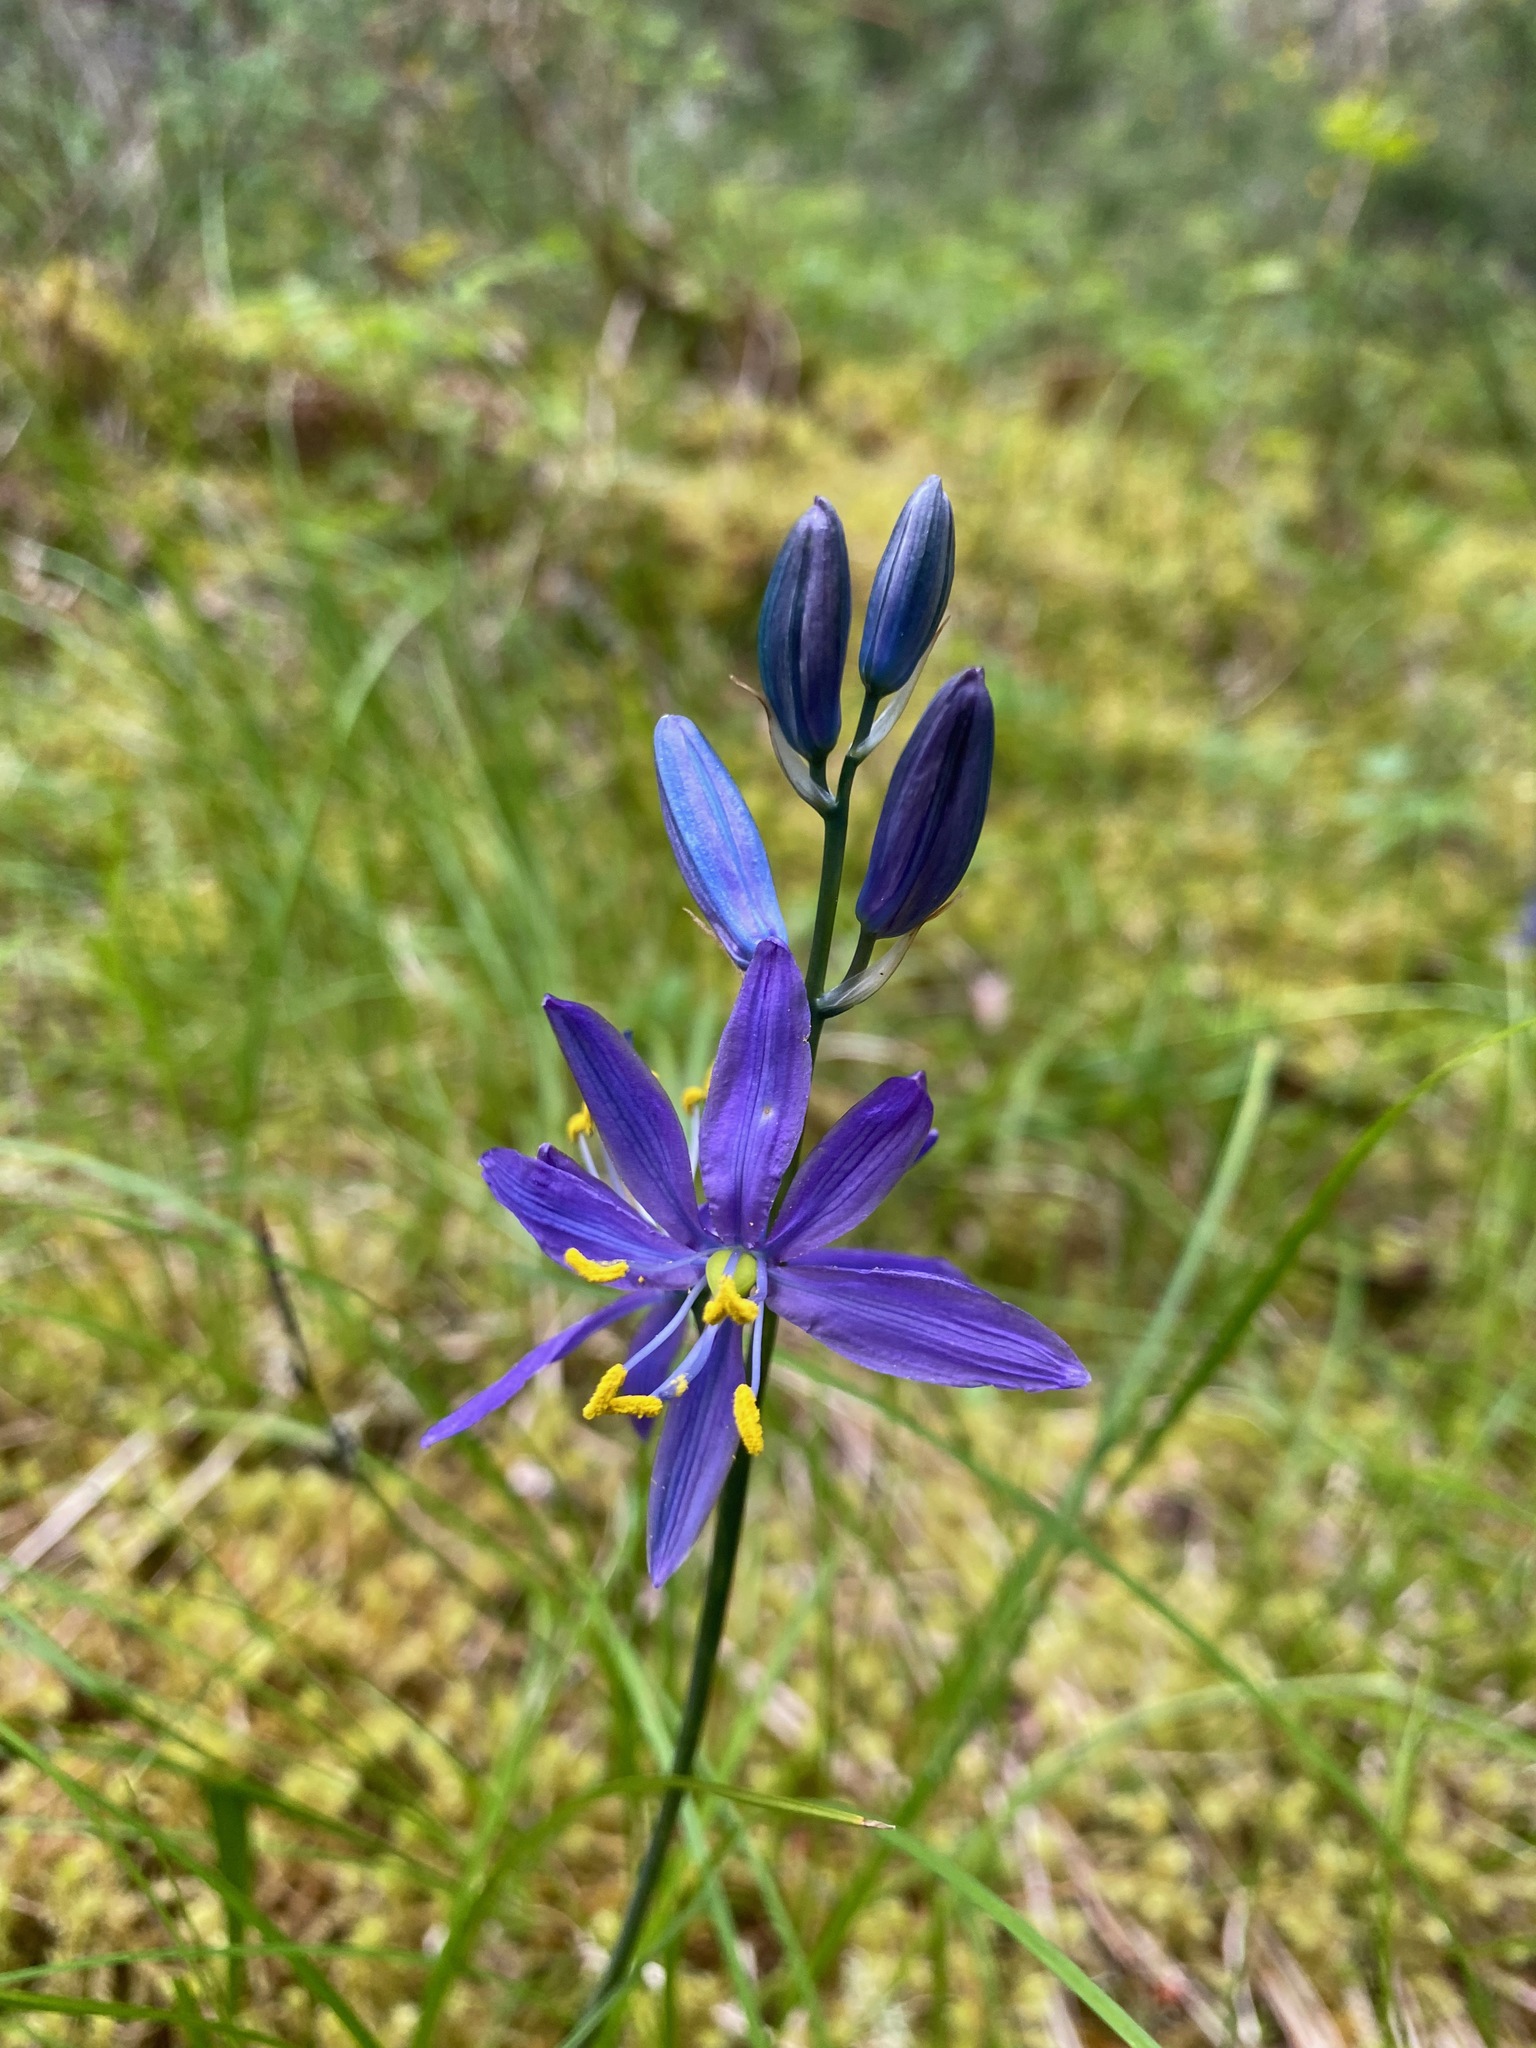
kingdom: Plantae
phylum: Tracheophyta
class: Liliopsida
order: Asparagales
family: Asparagaceae
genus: Camassia
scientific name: Camassia quamash
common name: Common camas
